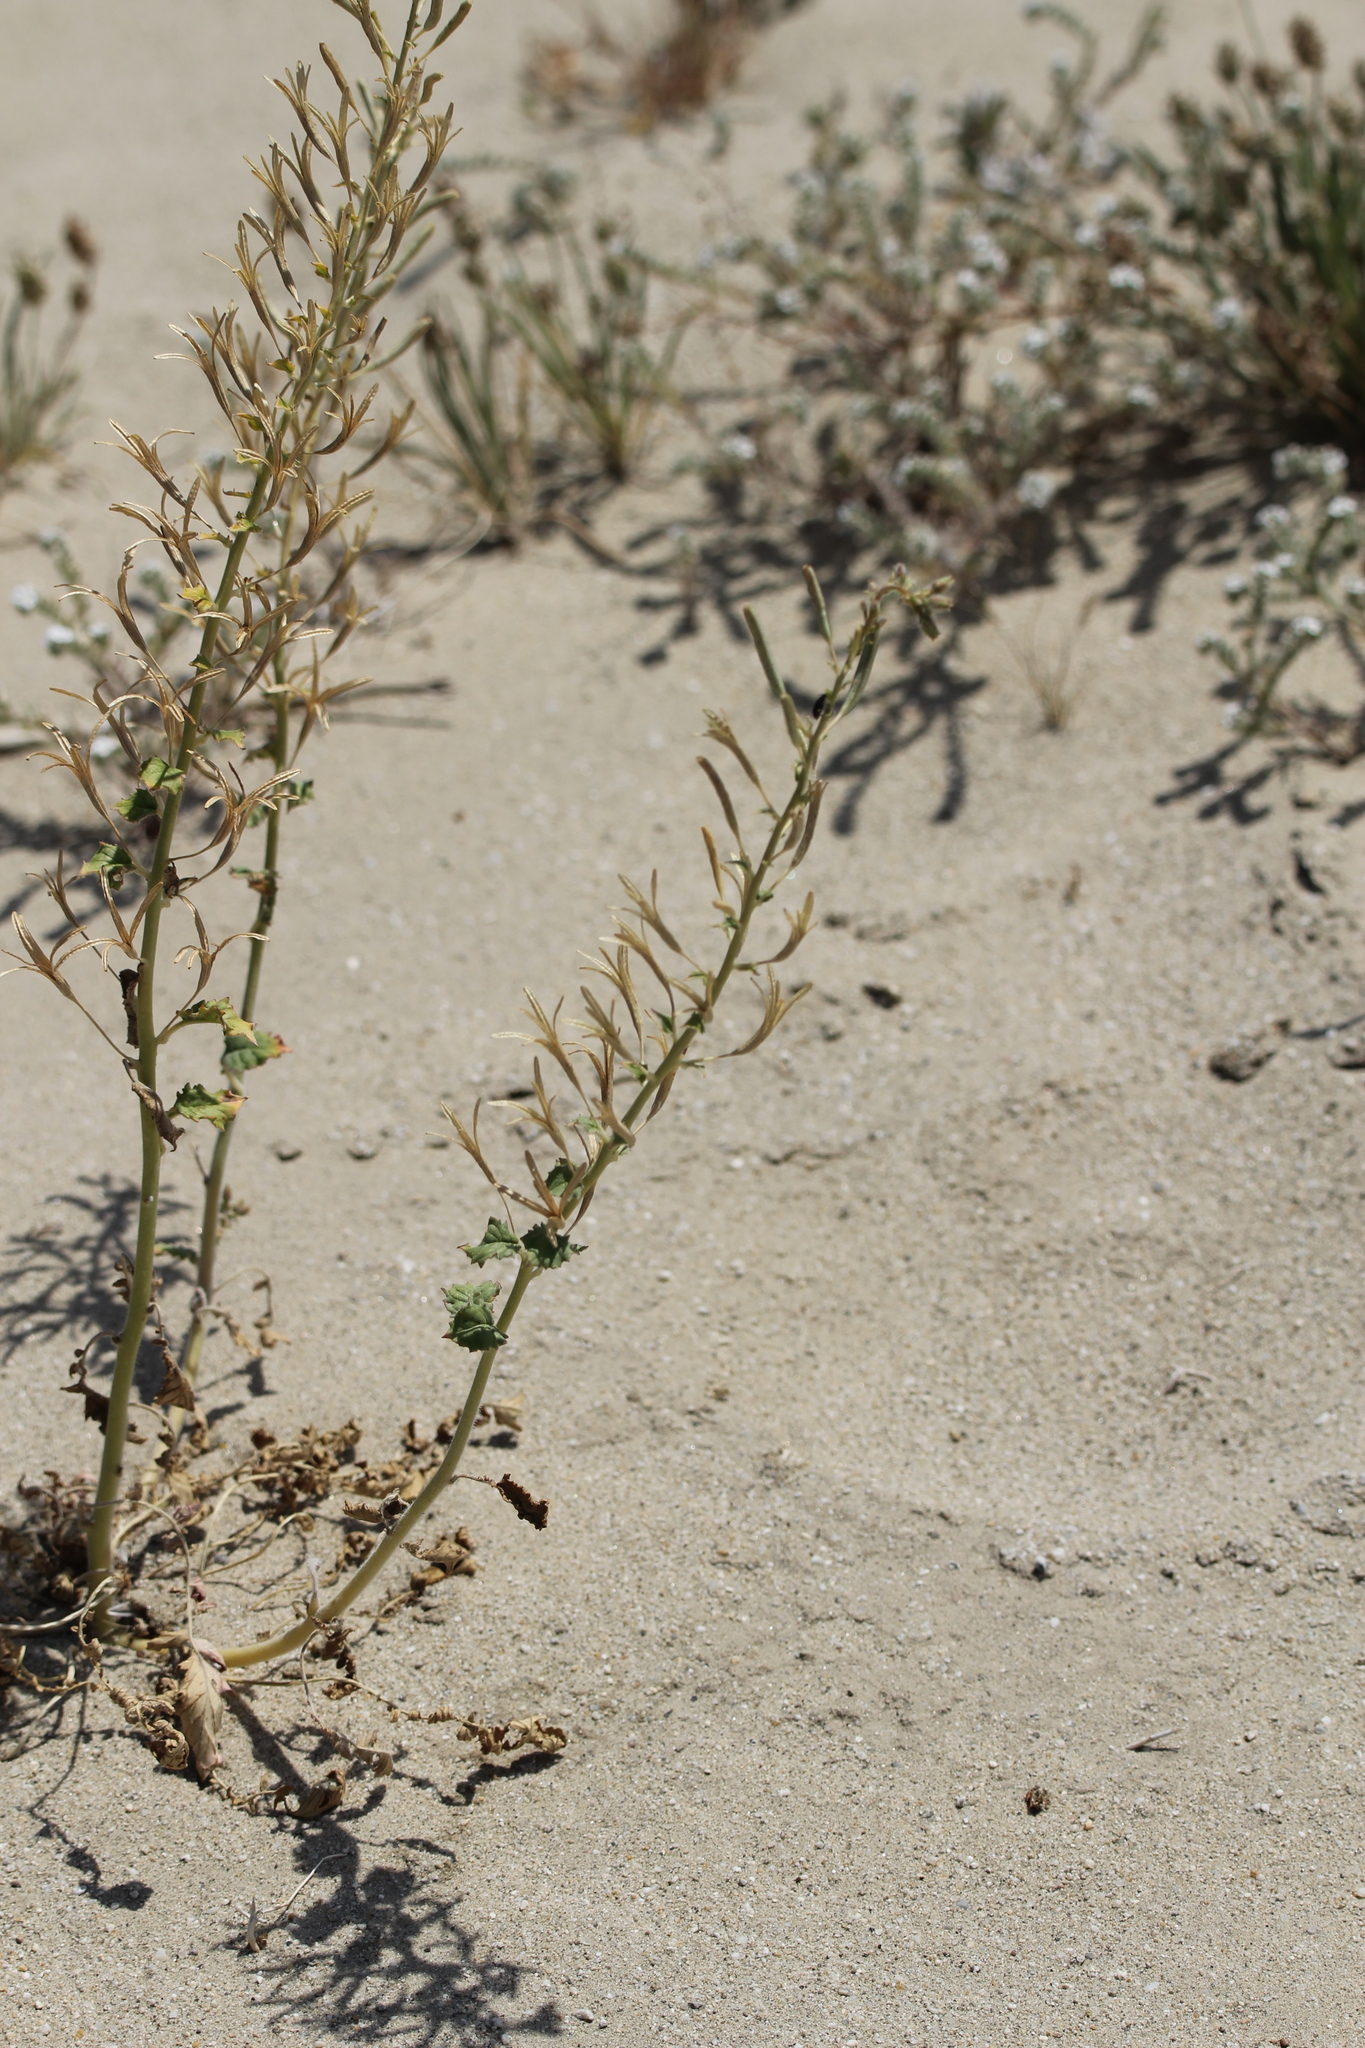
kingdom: Plantae
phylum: Tracheophyta
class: Magnoliopsida
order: Myrtales
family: Onagraceae
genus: Chylismia
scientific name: Chylismia claviformis
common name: Browneyes
